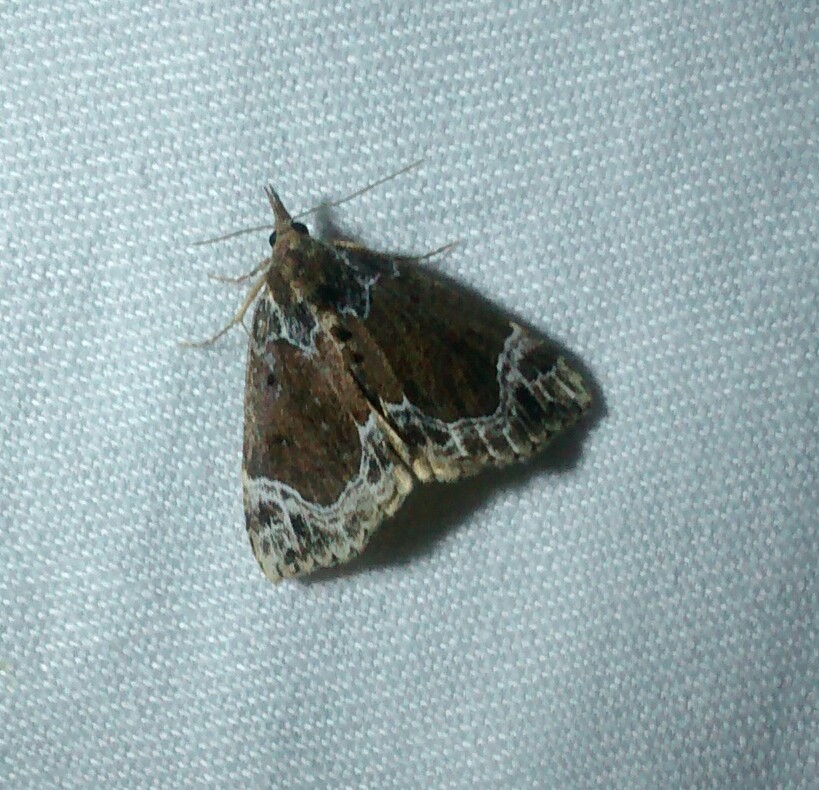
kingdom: Animalia
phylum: Arthropoda
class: Insecta
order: Lepidoptera
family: Erebidae
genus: Hypena
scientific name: Hypena abalienalis
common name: White-lined snout
